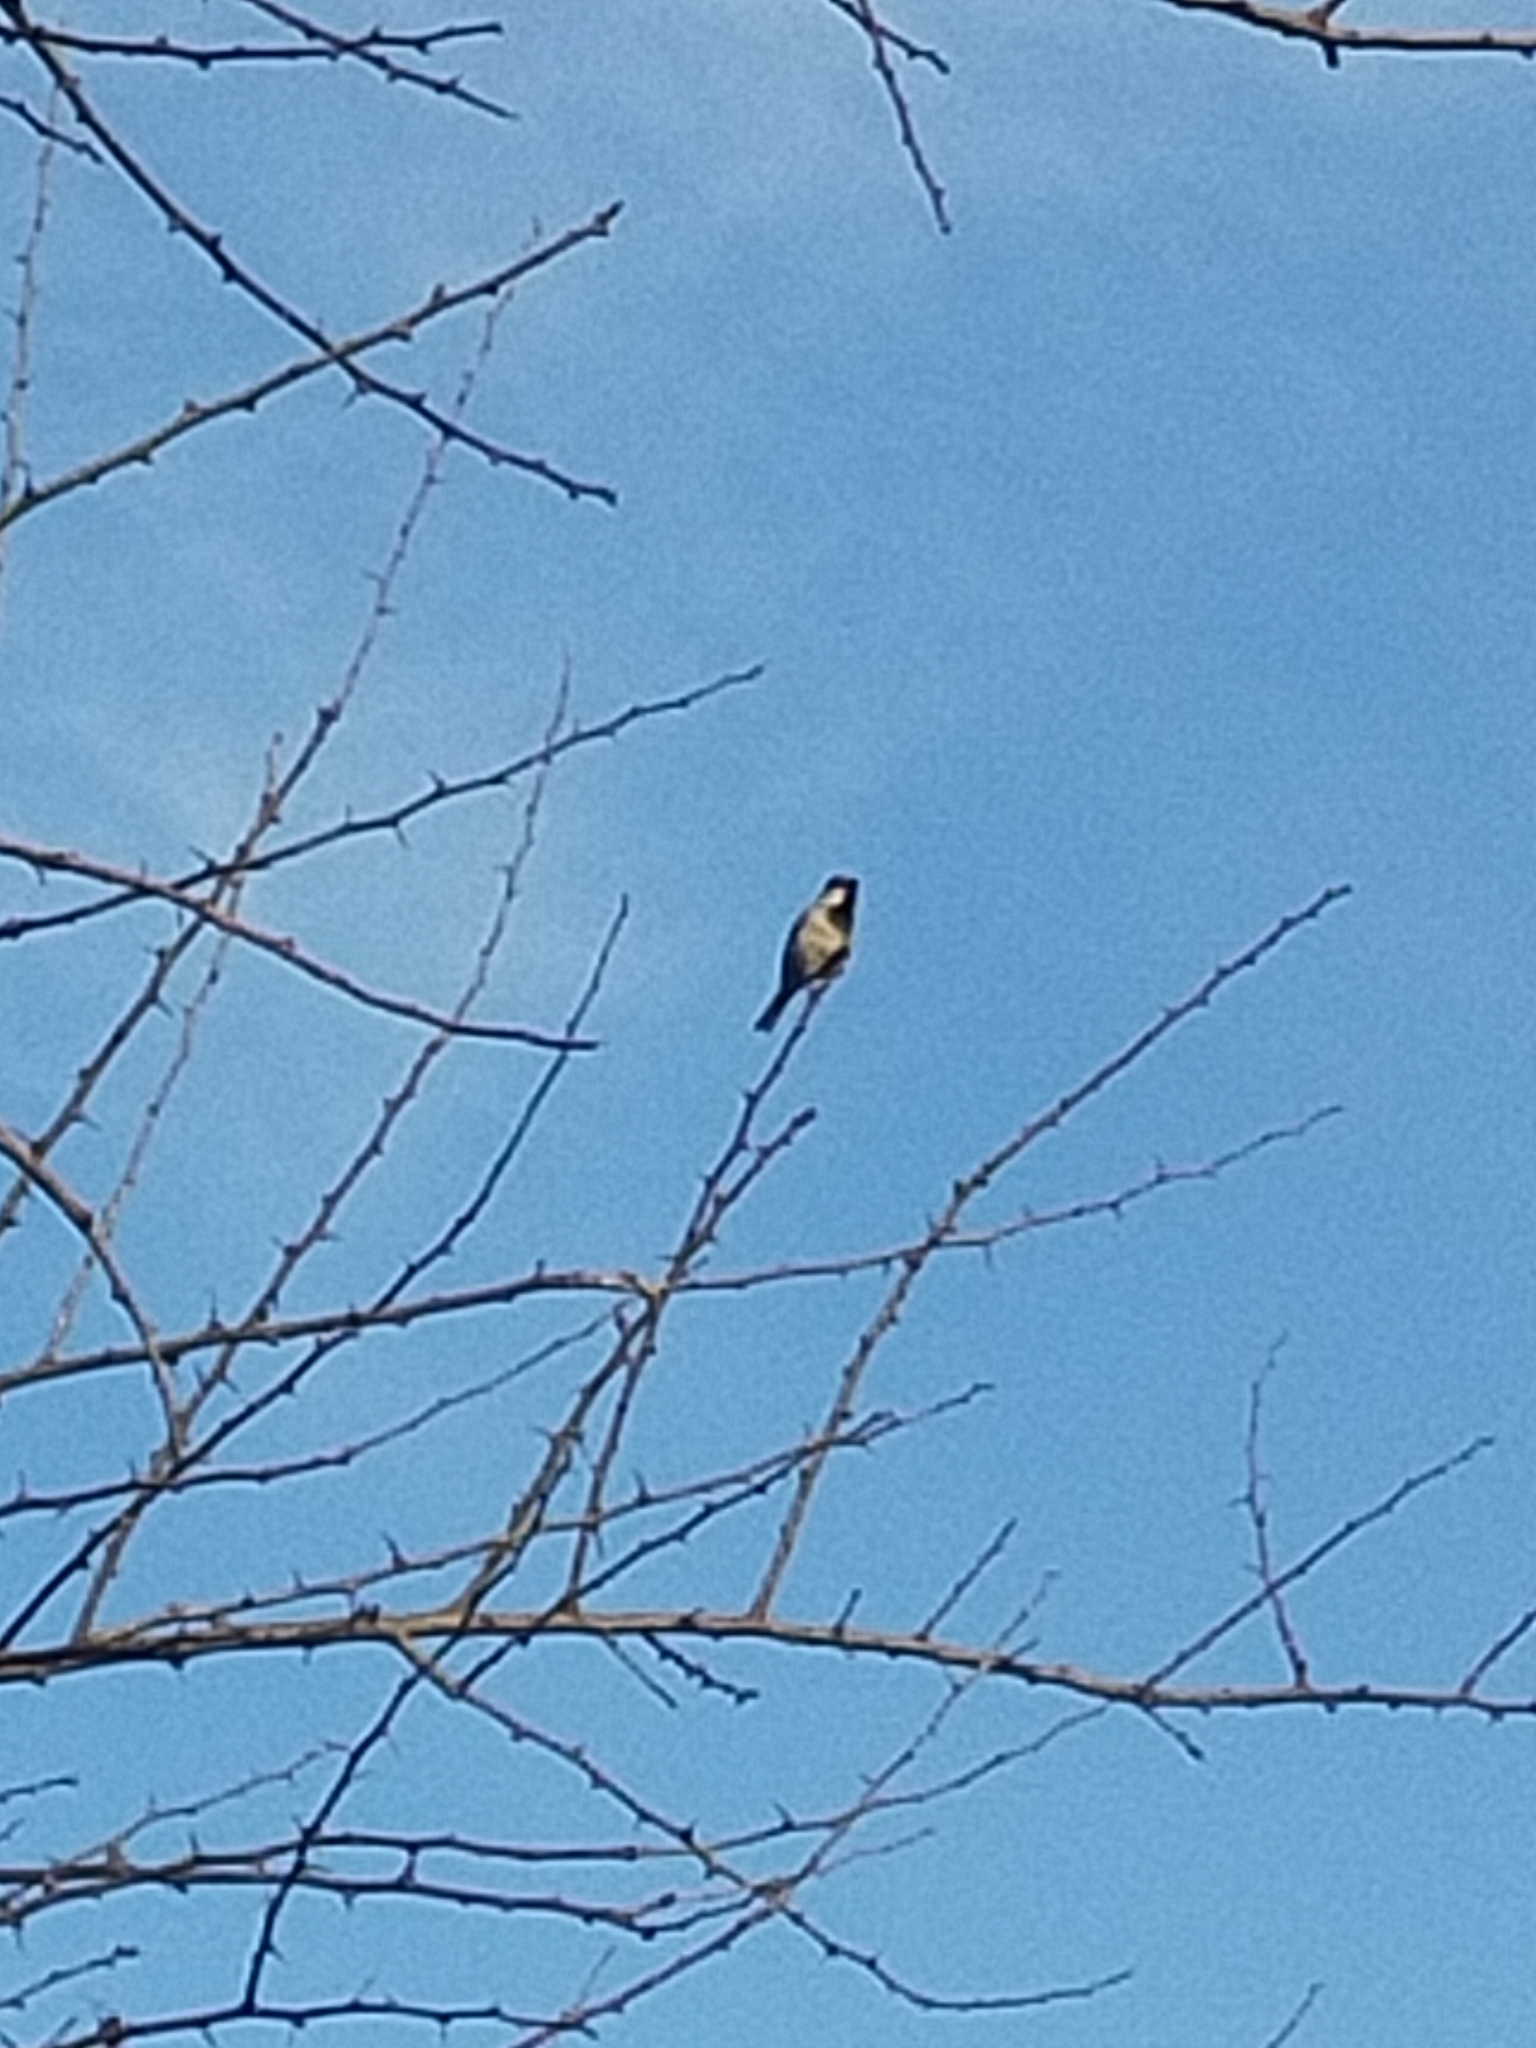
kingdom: Animalia
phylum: Chordata
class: Aves
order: Passeriformes
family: Paridae
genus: Parus
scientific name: Parus major
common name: Great tit
